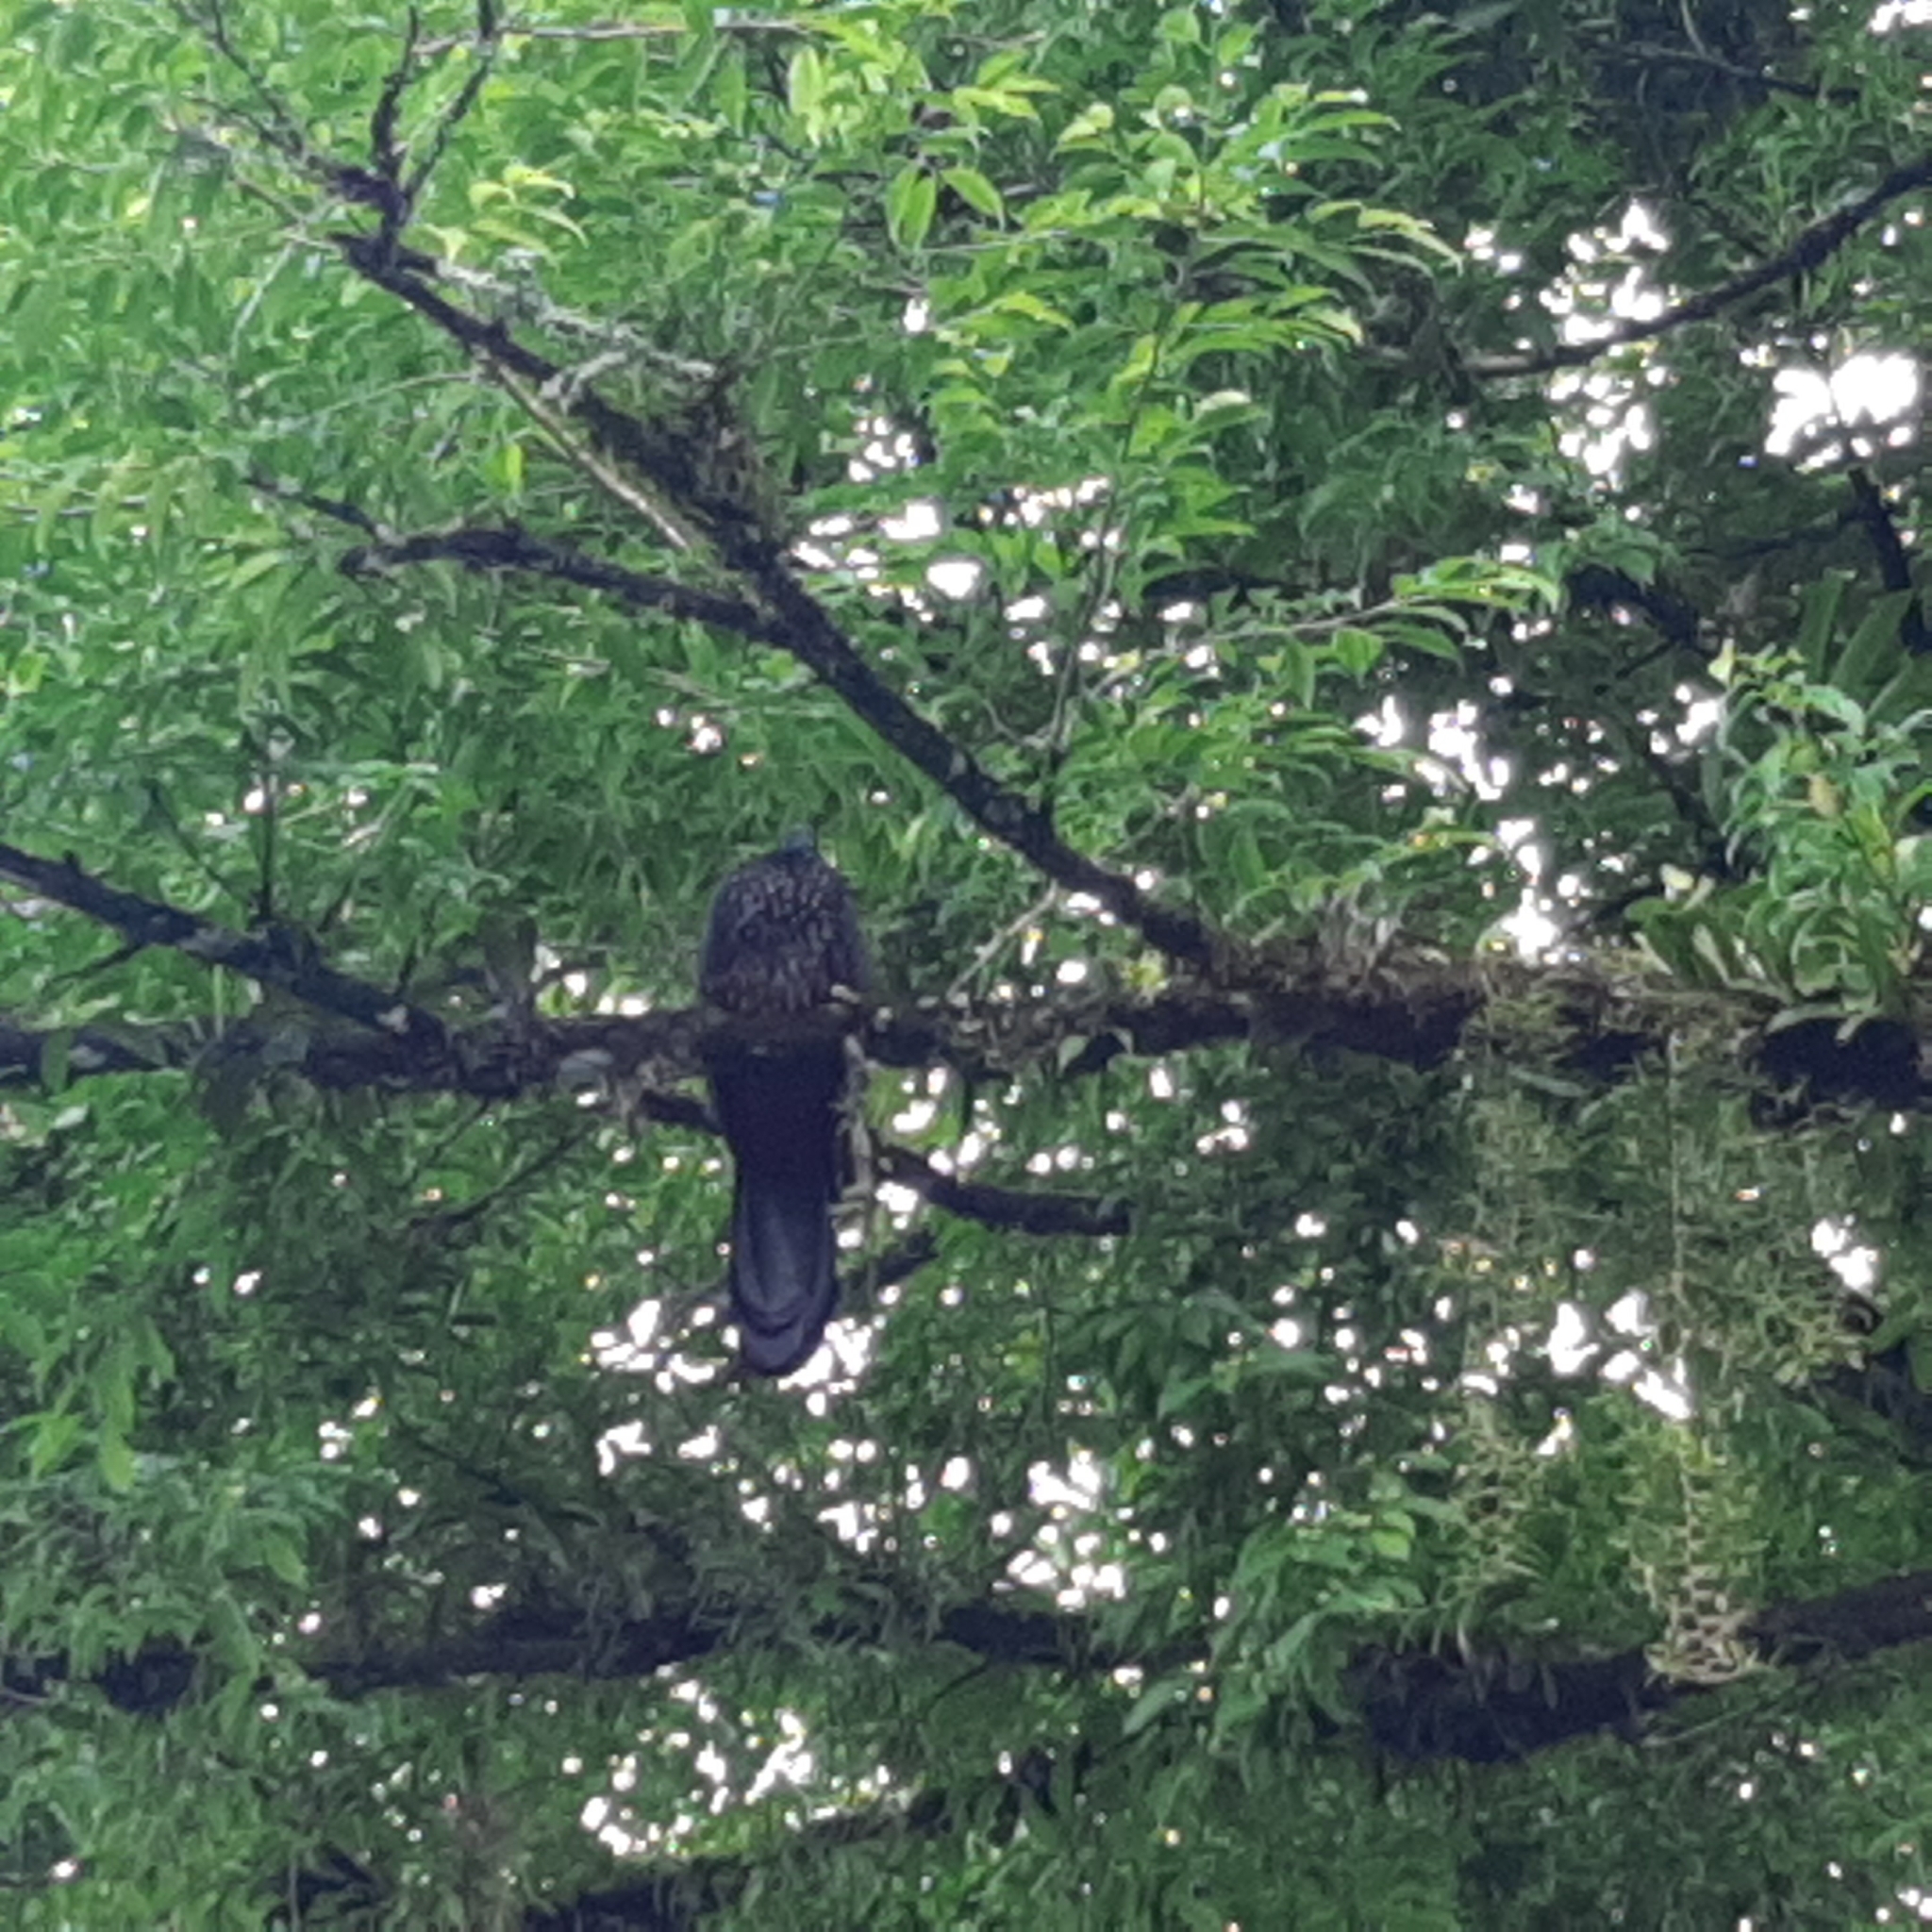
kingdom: Animalia
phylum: Chordata
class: Aves
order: Galliformes
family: Cracidae
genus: Penelope
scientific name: Penelope purpurascens
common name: Crested guan
